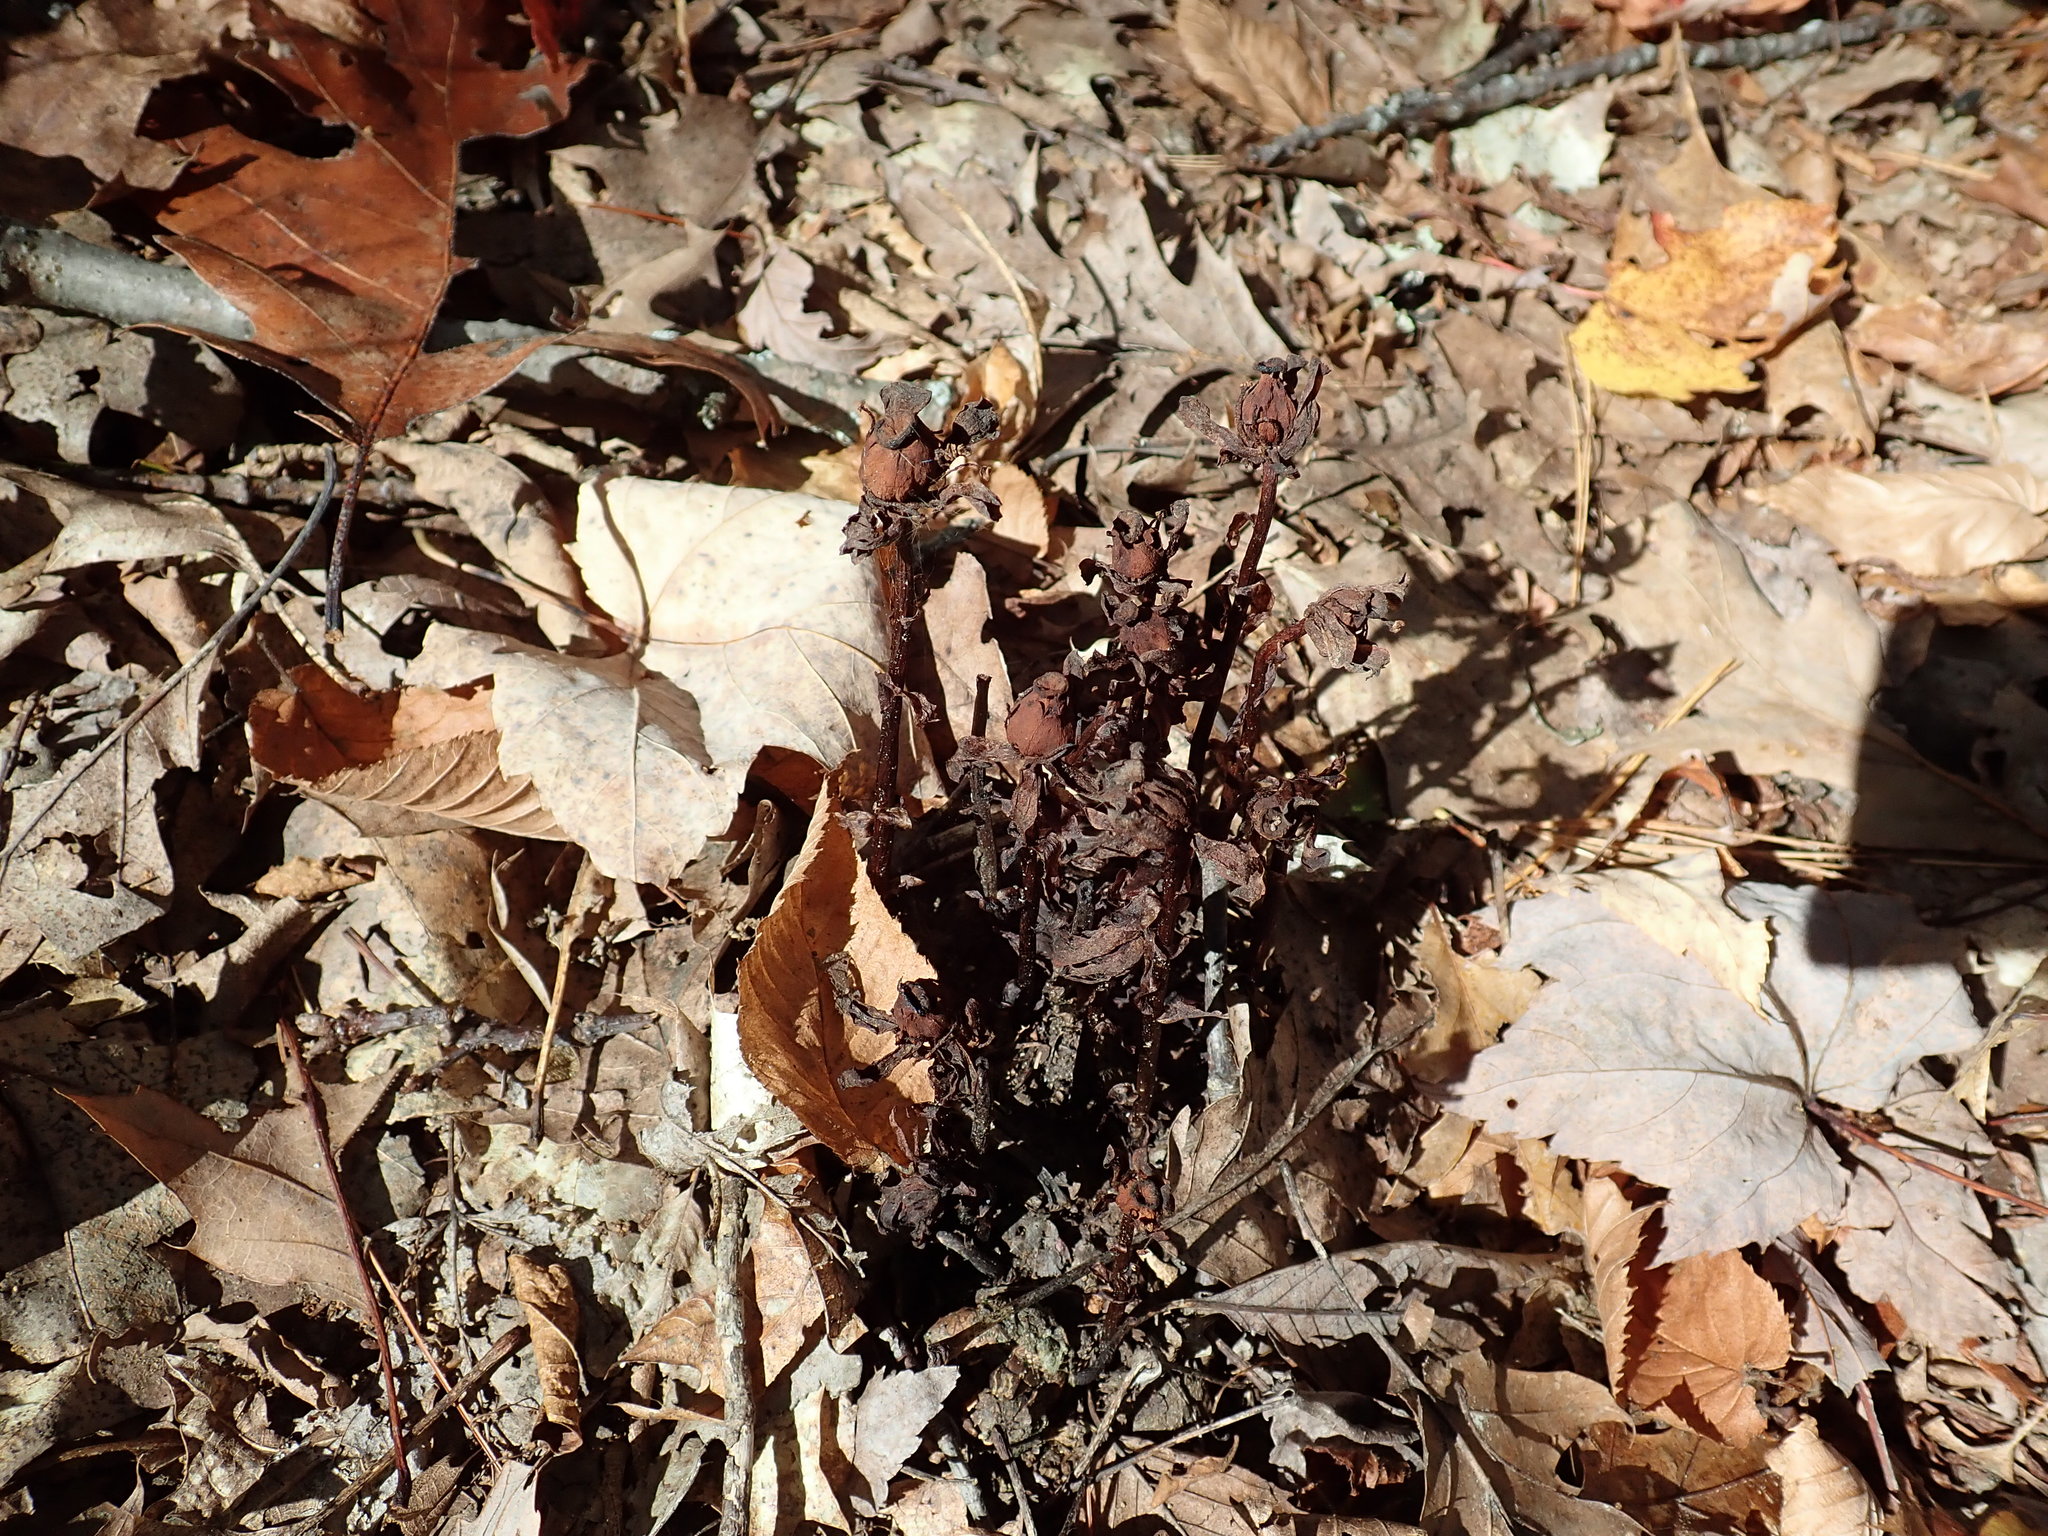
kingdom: Plantae
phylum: Tracheophyta
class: Magnoliopsida
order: Ericales
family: Ericaceae
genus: Monotropa
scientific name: Monotropa uniflora
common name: Convulsion root
